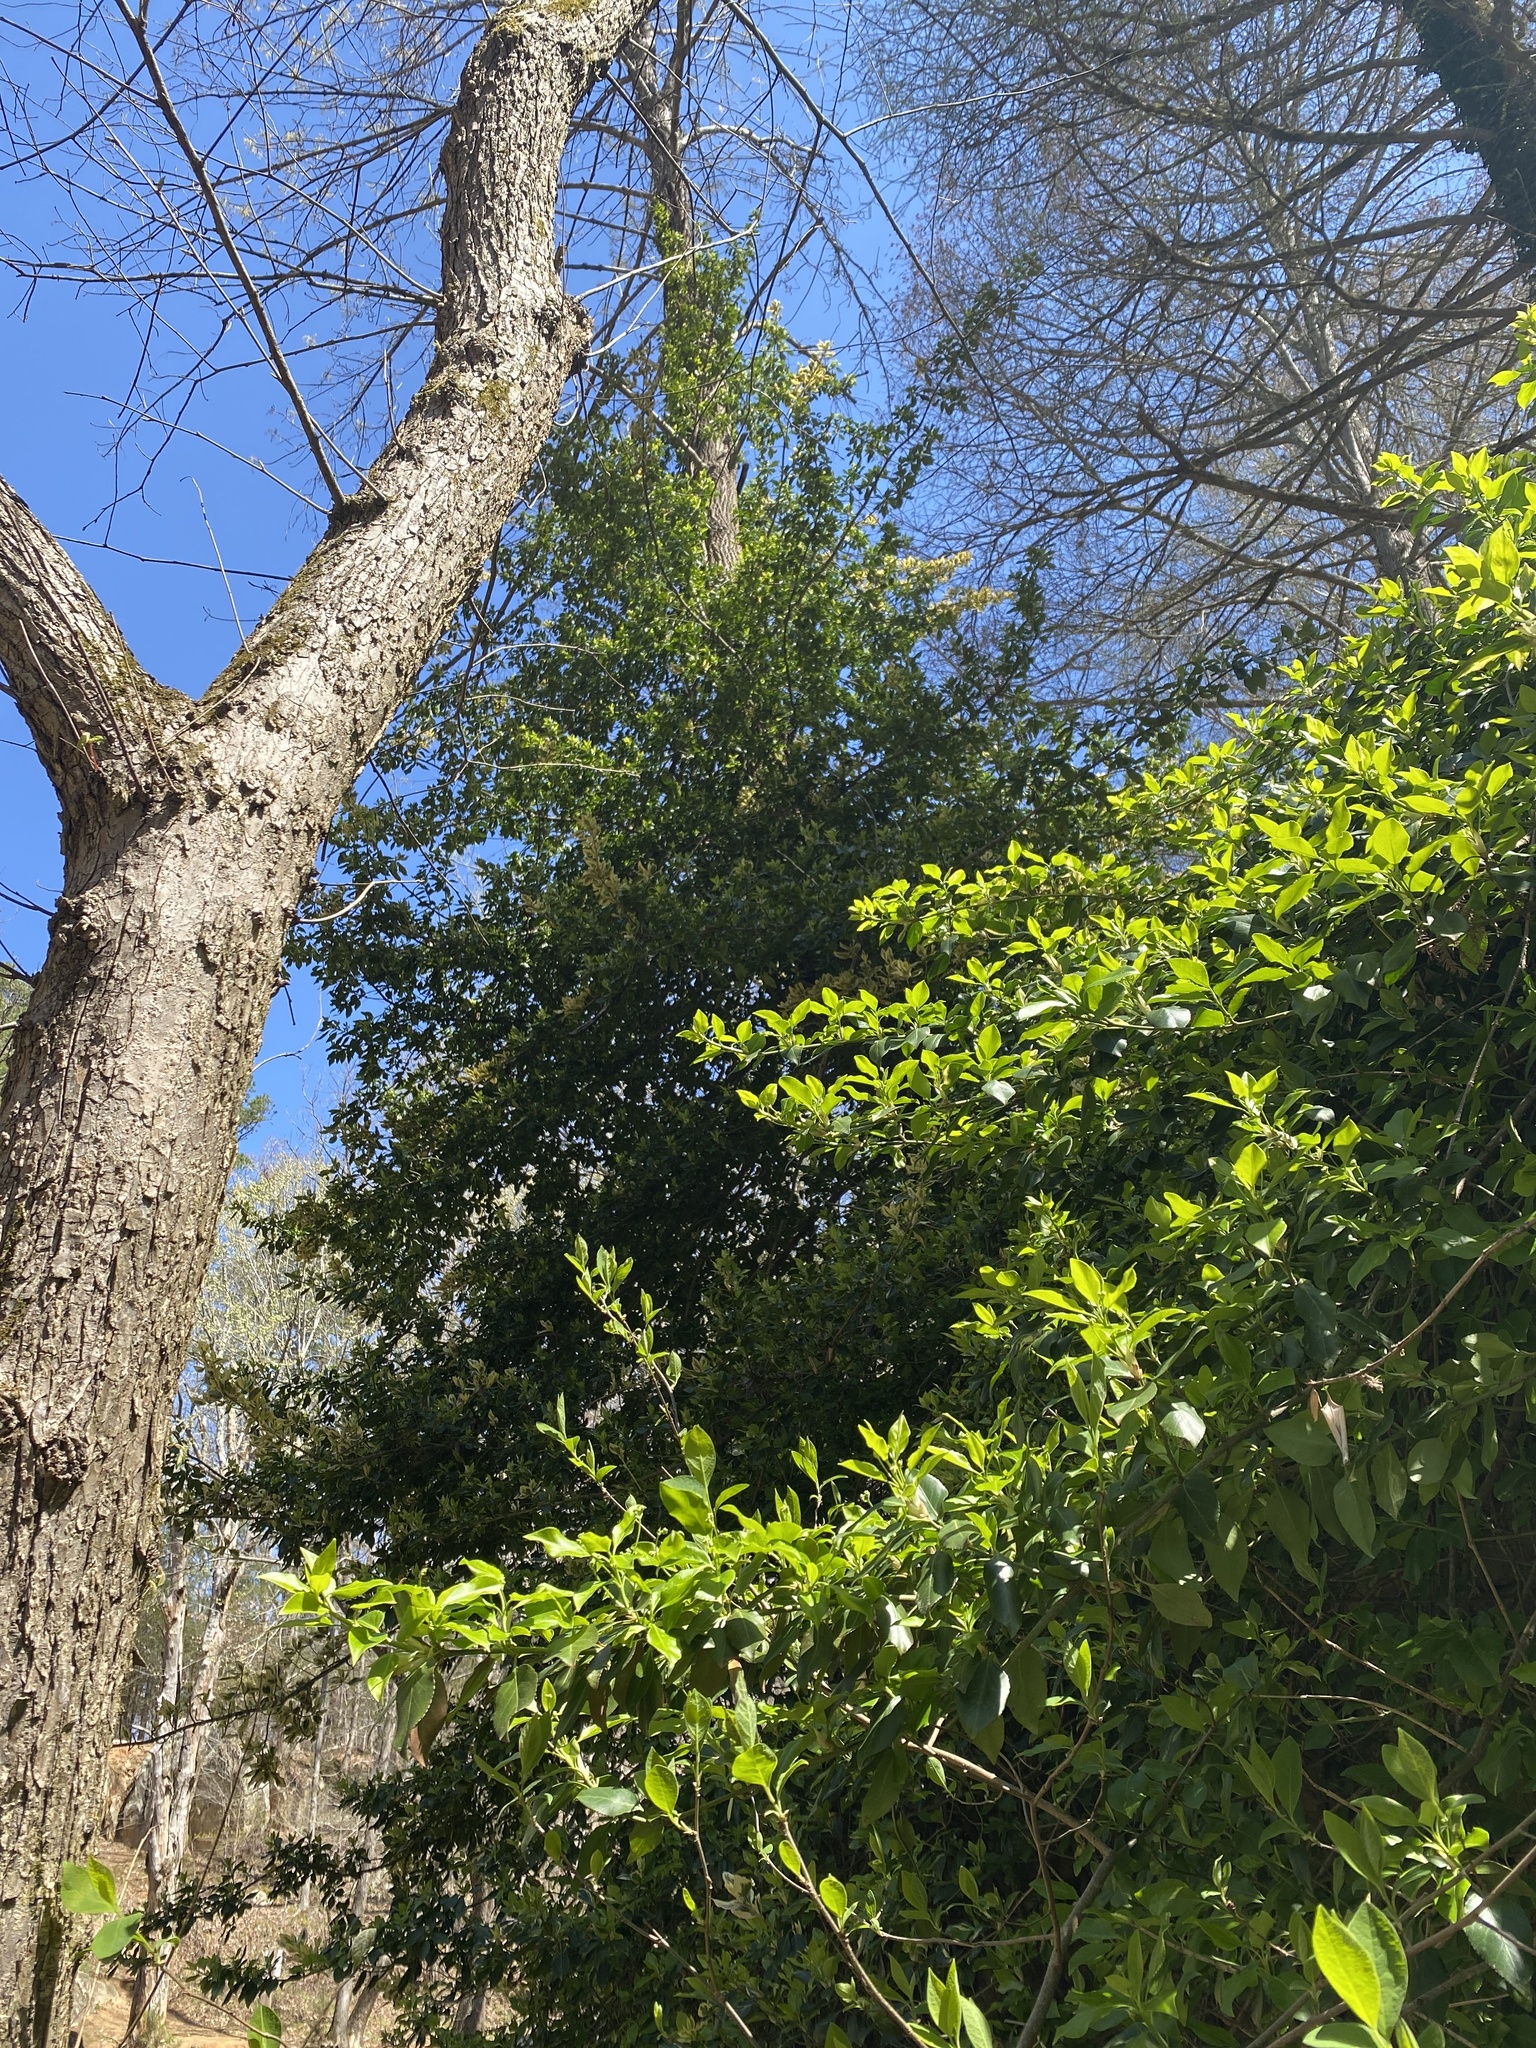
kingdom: Plantae
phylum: Tracheophyta
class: Magnoliopsida
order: Celastrales
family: Celastraceae
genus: Euonymus
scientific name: Euonymus japonicus
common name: Japanese spindletree
